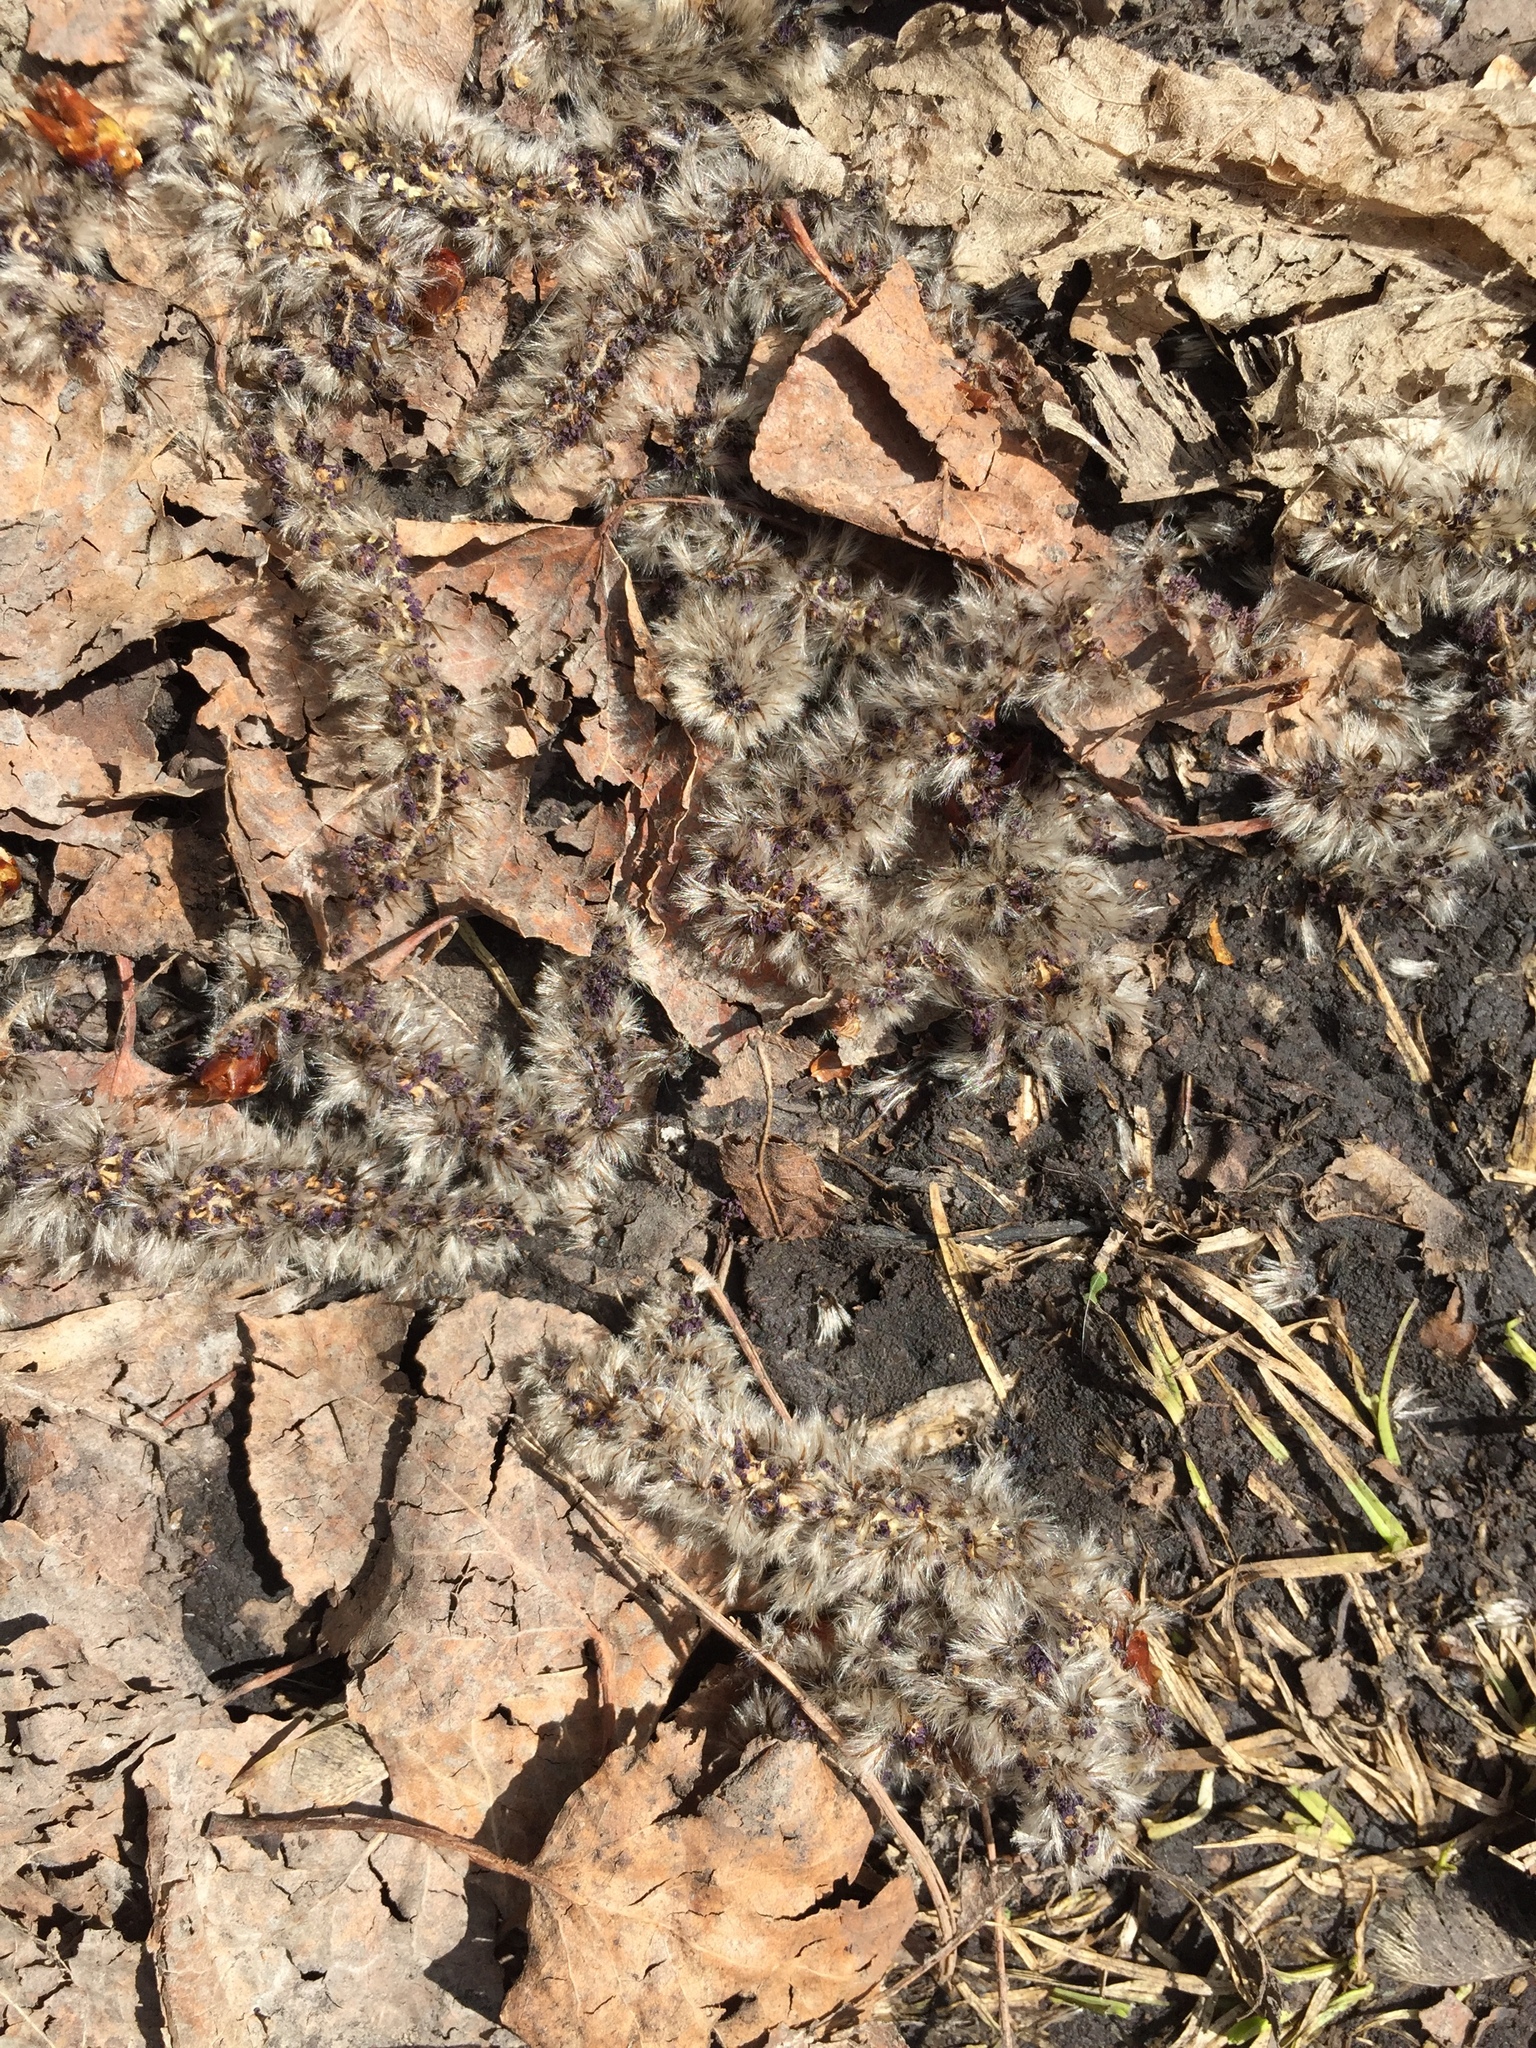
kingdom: Plantae
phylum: Tracheophyta
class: Magnoliopsida
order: Malpighiales
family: Salicaceae
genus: Populus
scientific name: Populus tremuloides
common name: Quaking aspen
